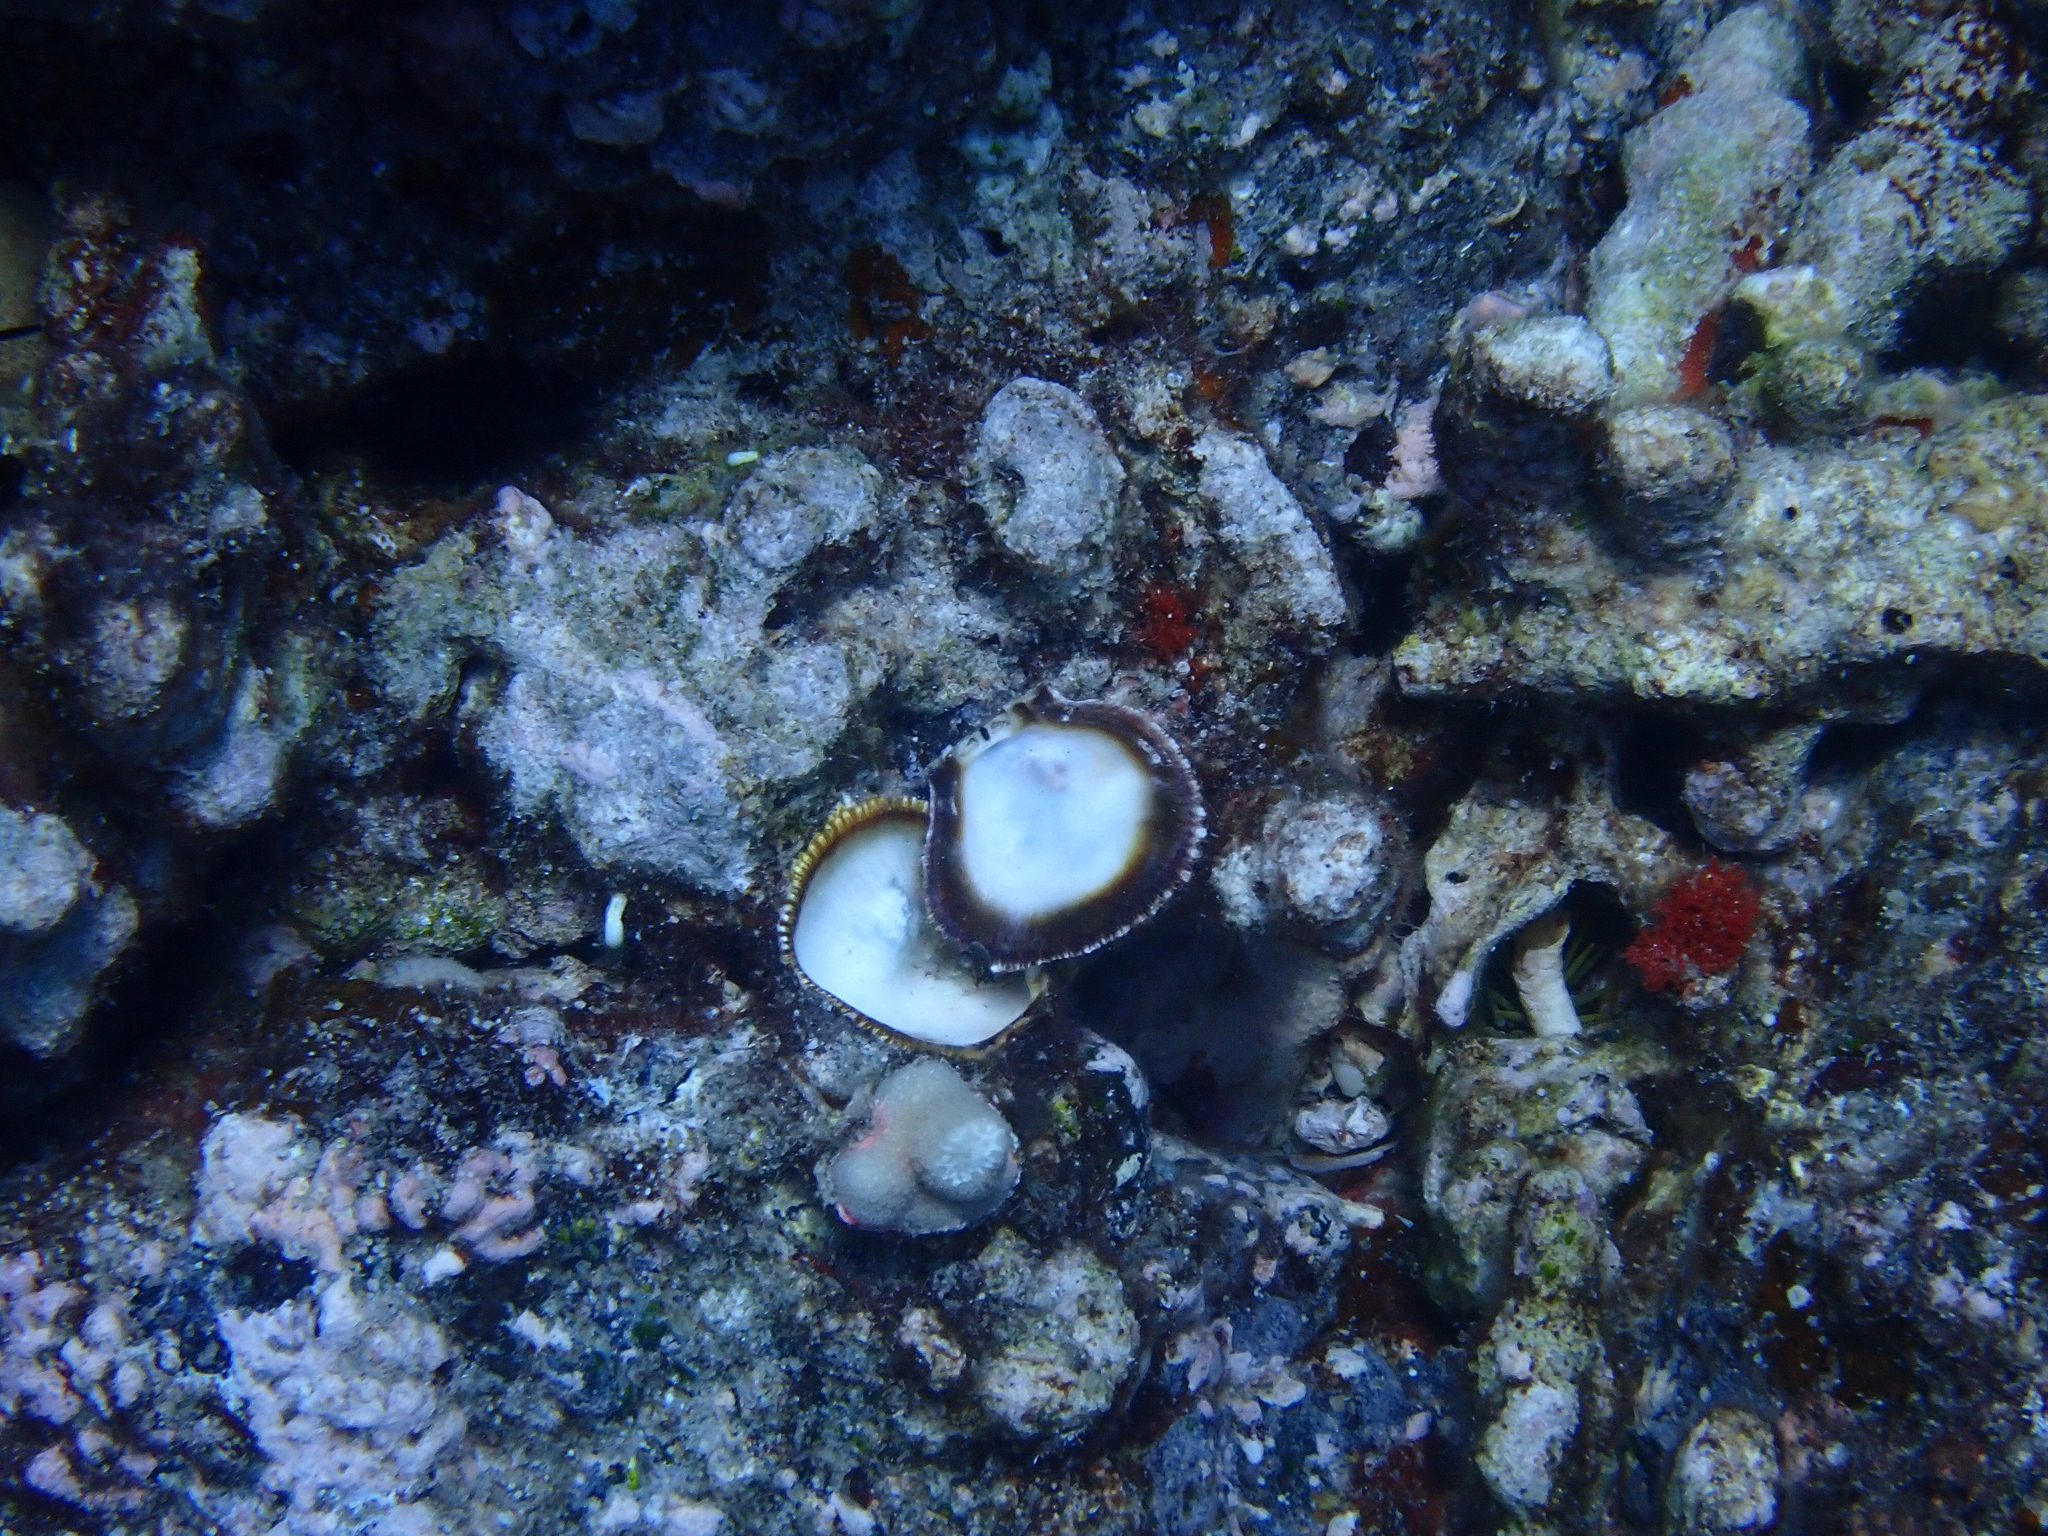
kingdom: Animalia
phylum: Mollusca
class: Bivalvia
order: Pectinida
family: Spondylidae
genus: Spondylus
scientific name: Spondylus violacescens
